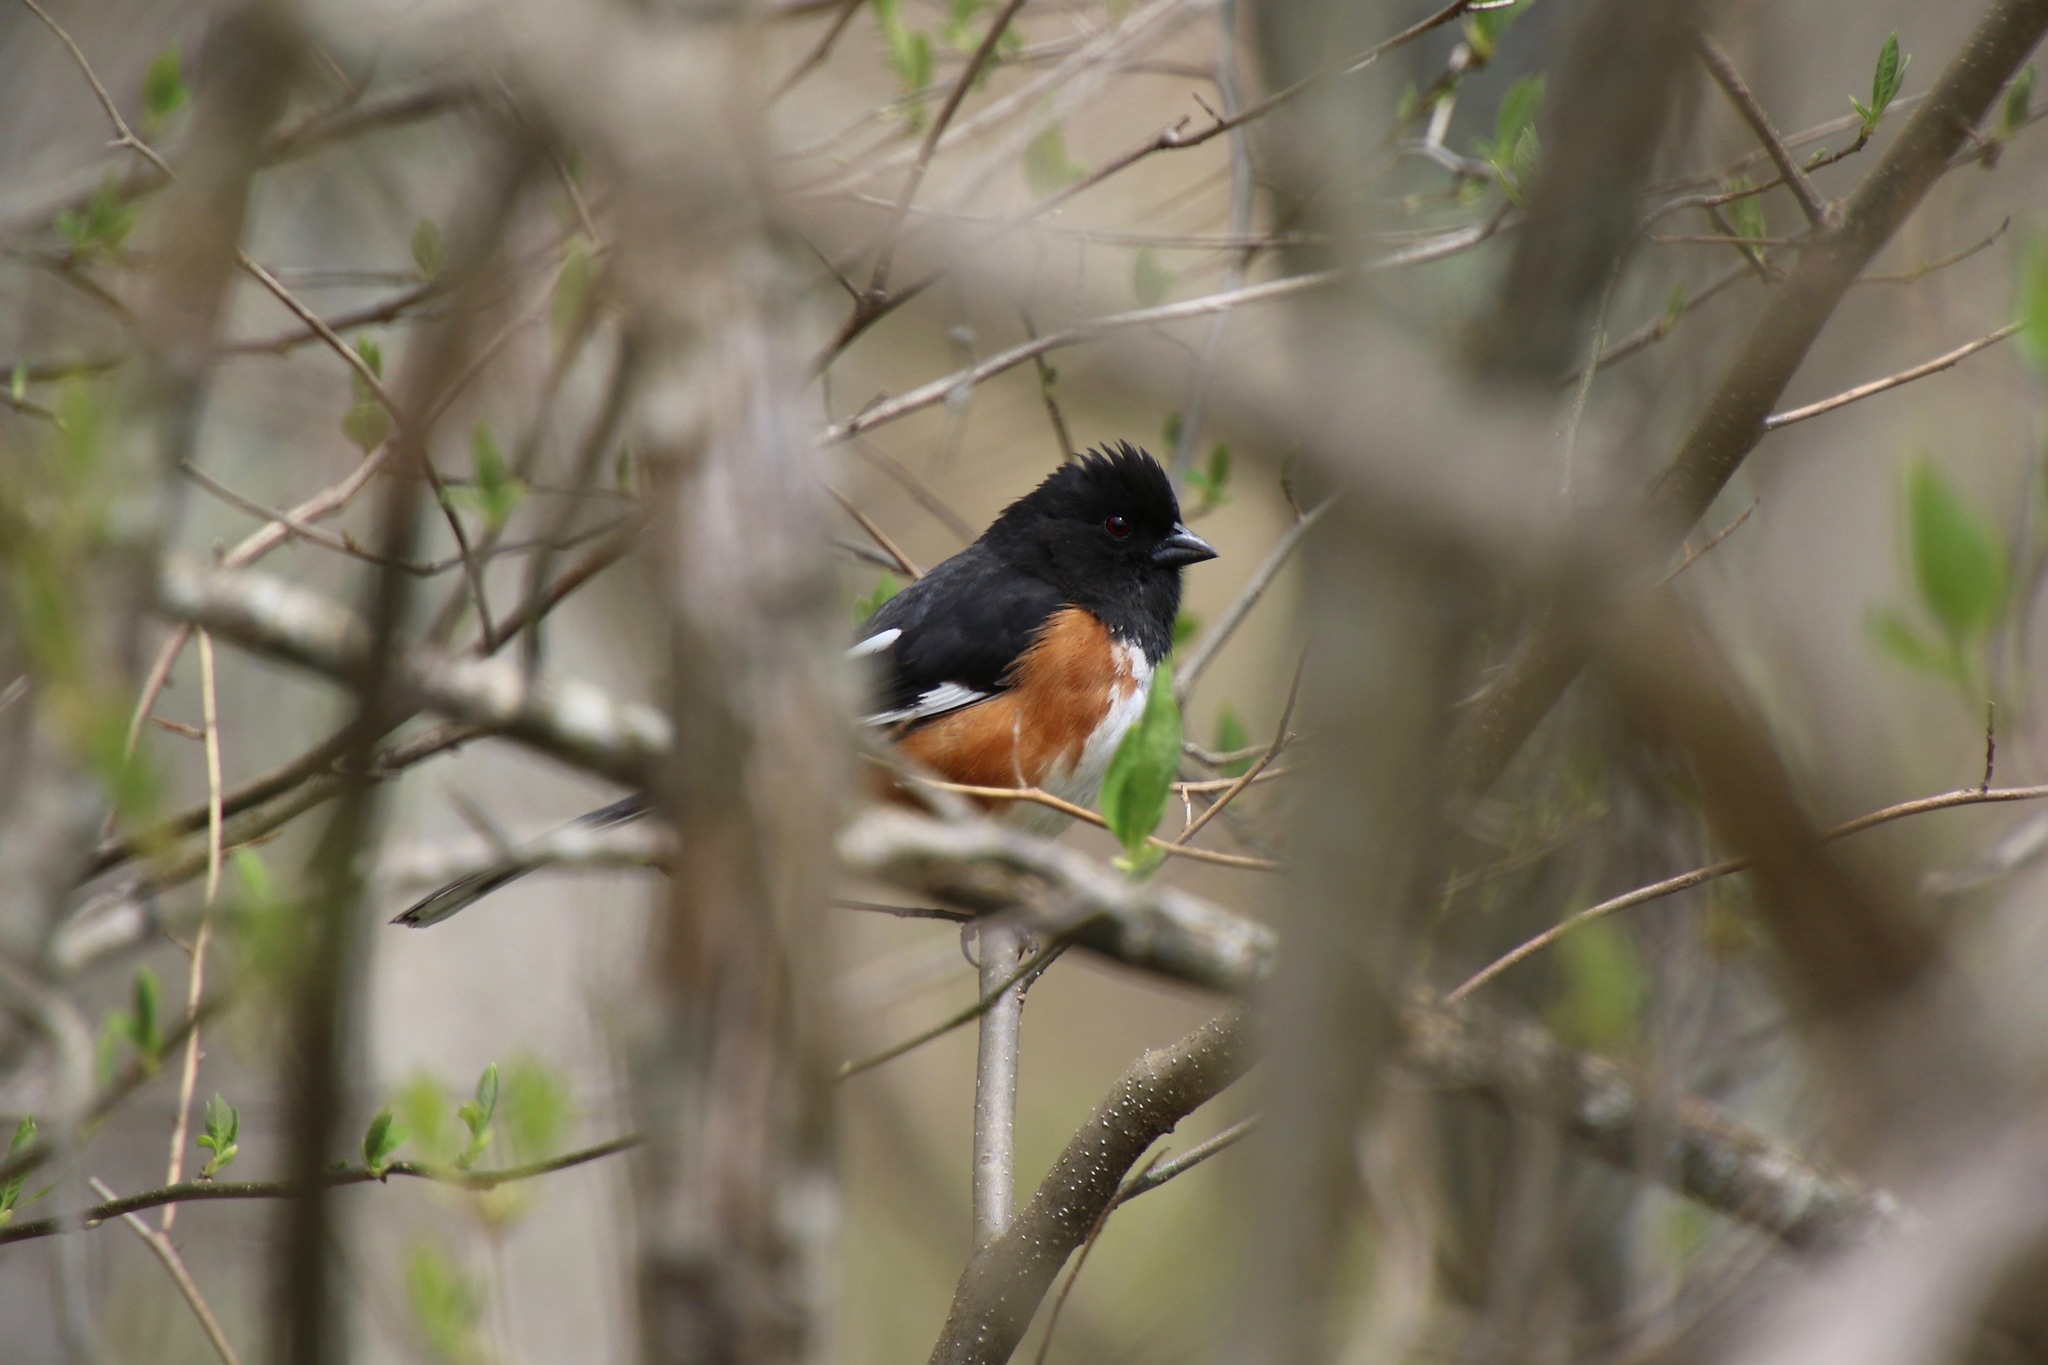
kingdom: Animalia
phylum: Chordata
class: Aves
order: Passeriformes
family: Passerellidae
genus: Pipilo
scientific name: Pipilo erythrophthalmus
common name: Eastern towhee
